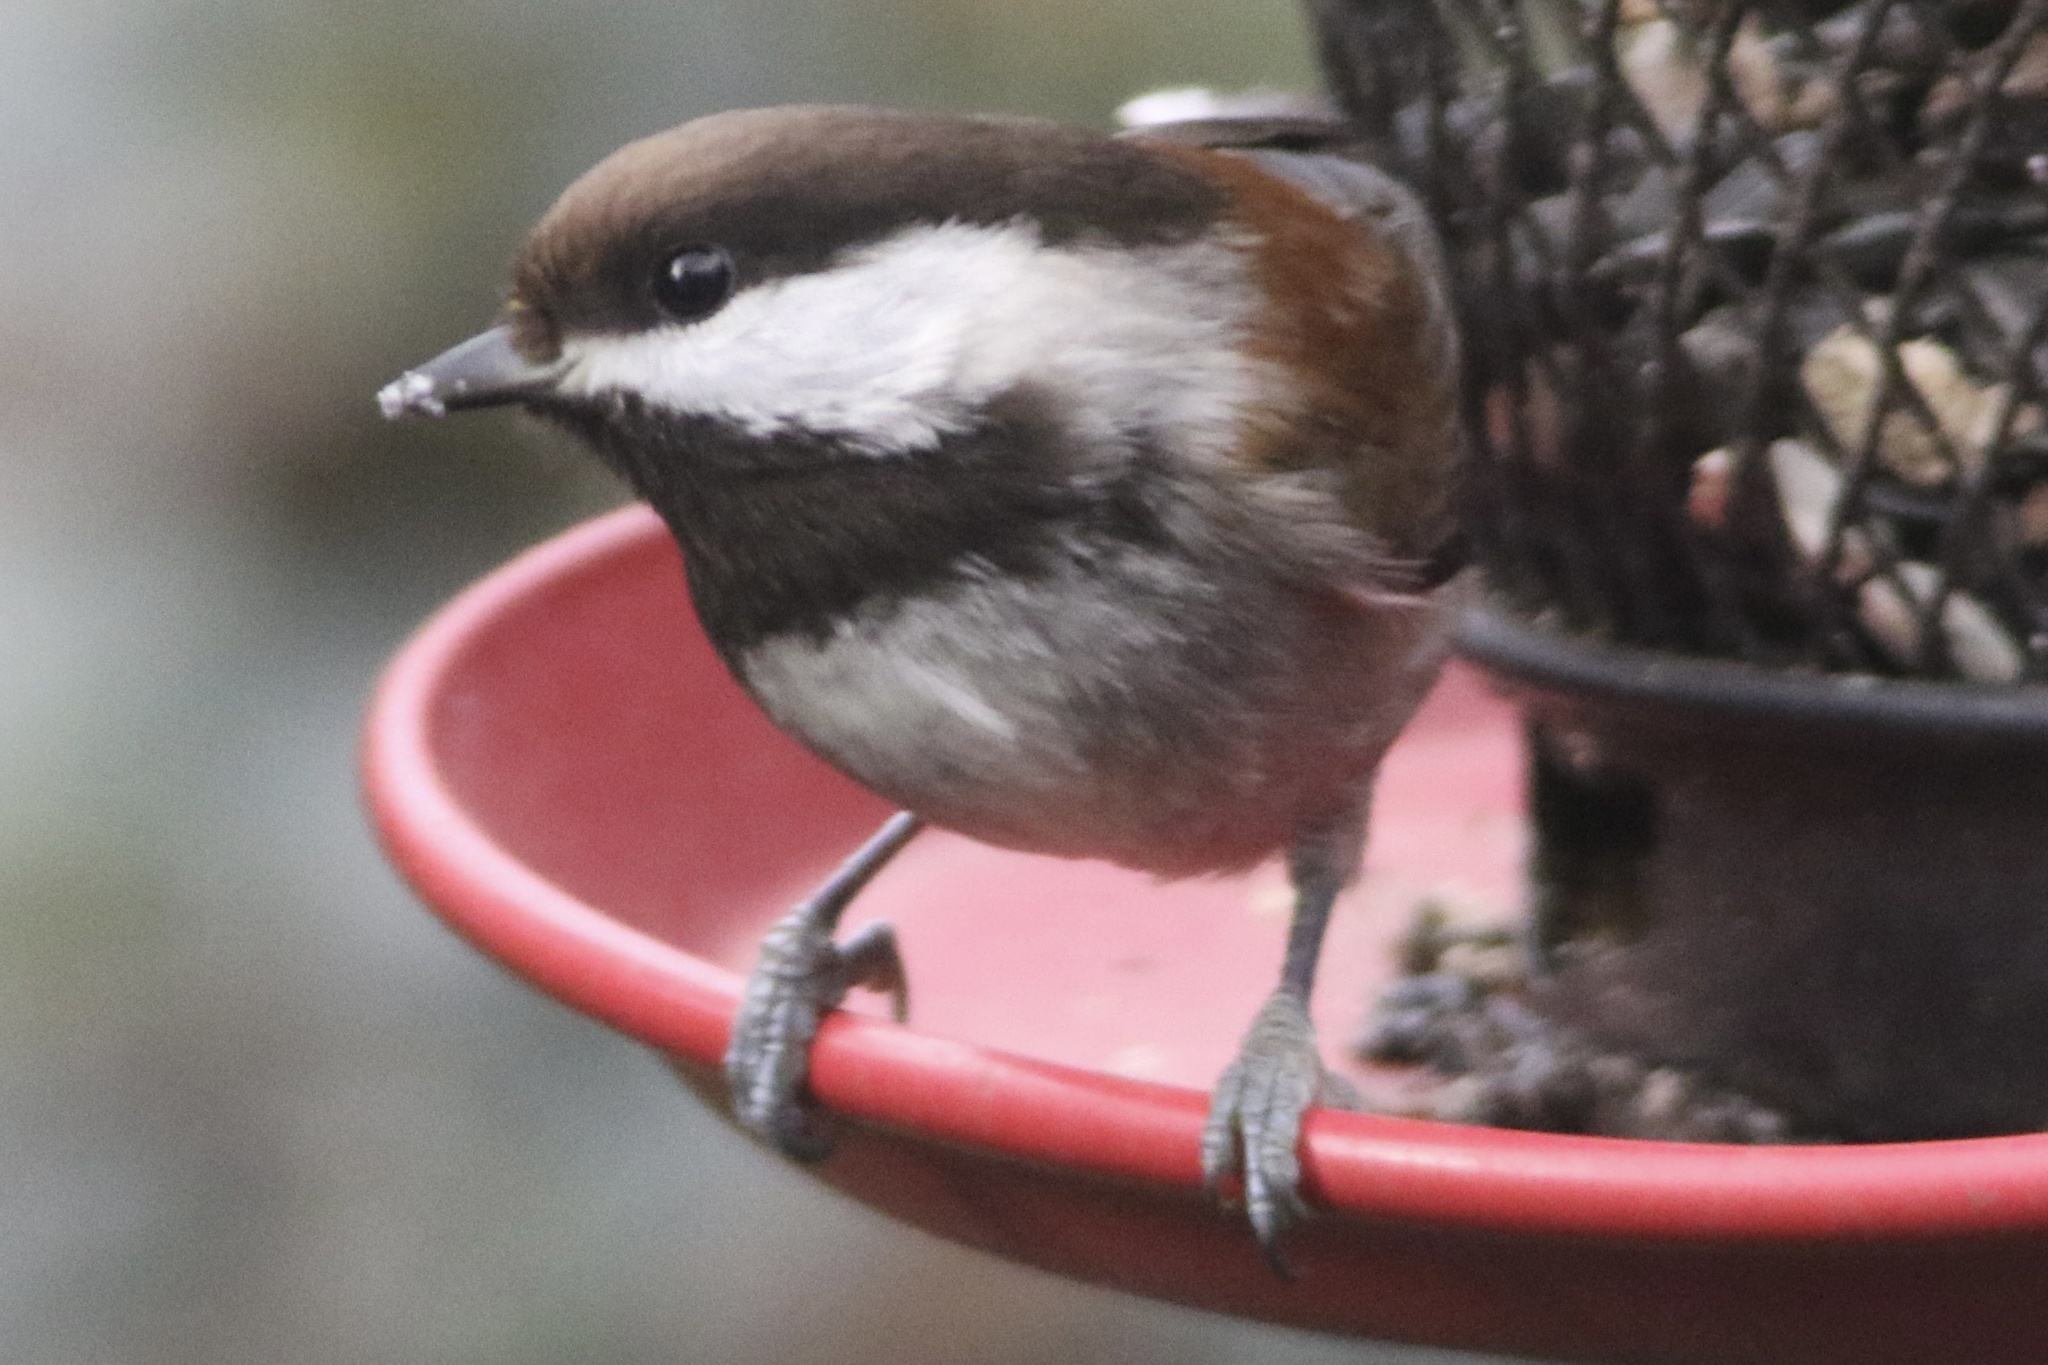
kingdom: Animalia
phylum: Chordata
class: Aves
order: Passeriformes
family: Paridae
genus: Poecile
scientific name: Poecile rufescens
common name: Chestnut-backed chickadee
